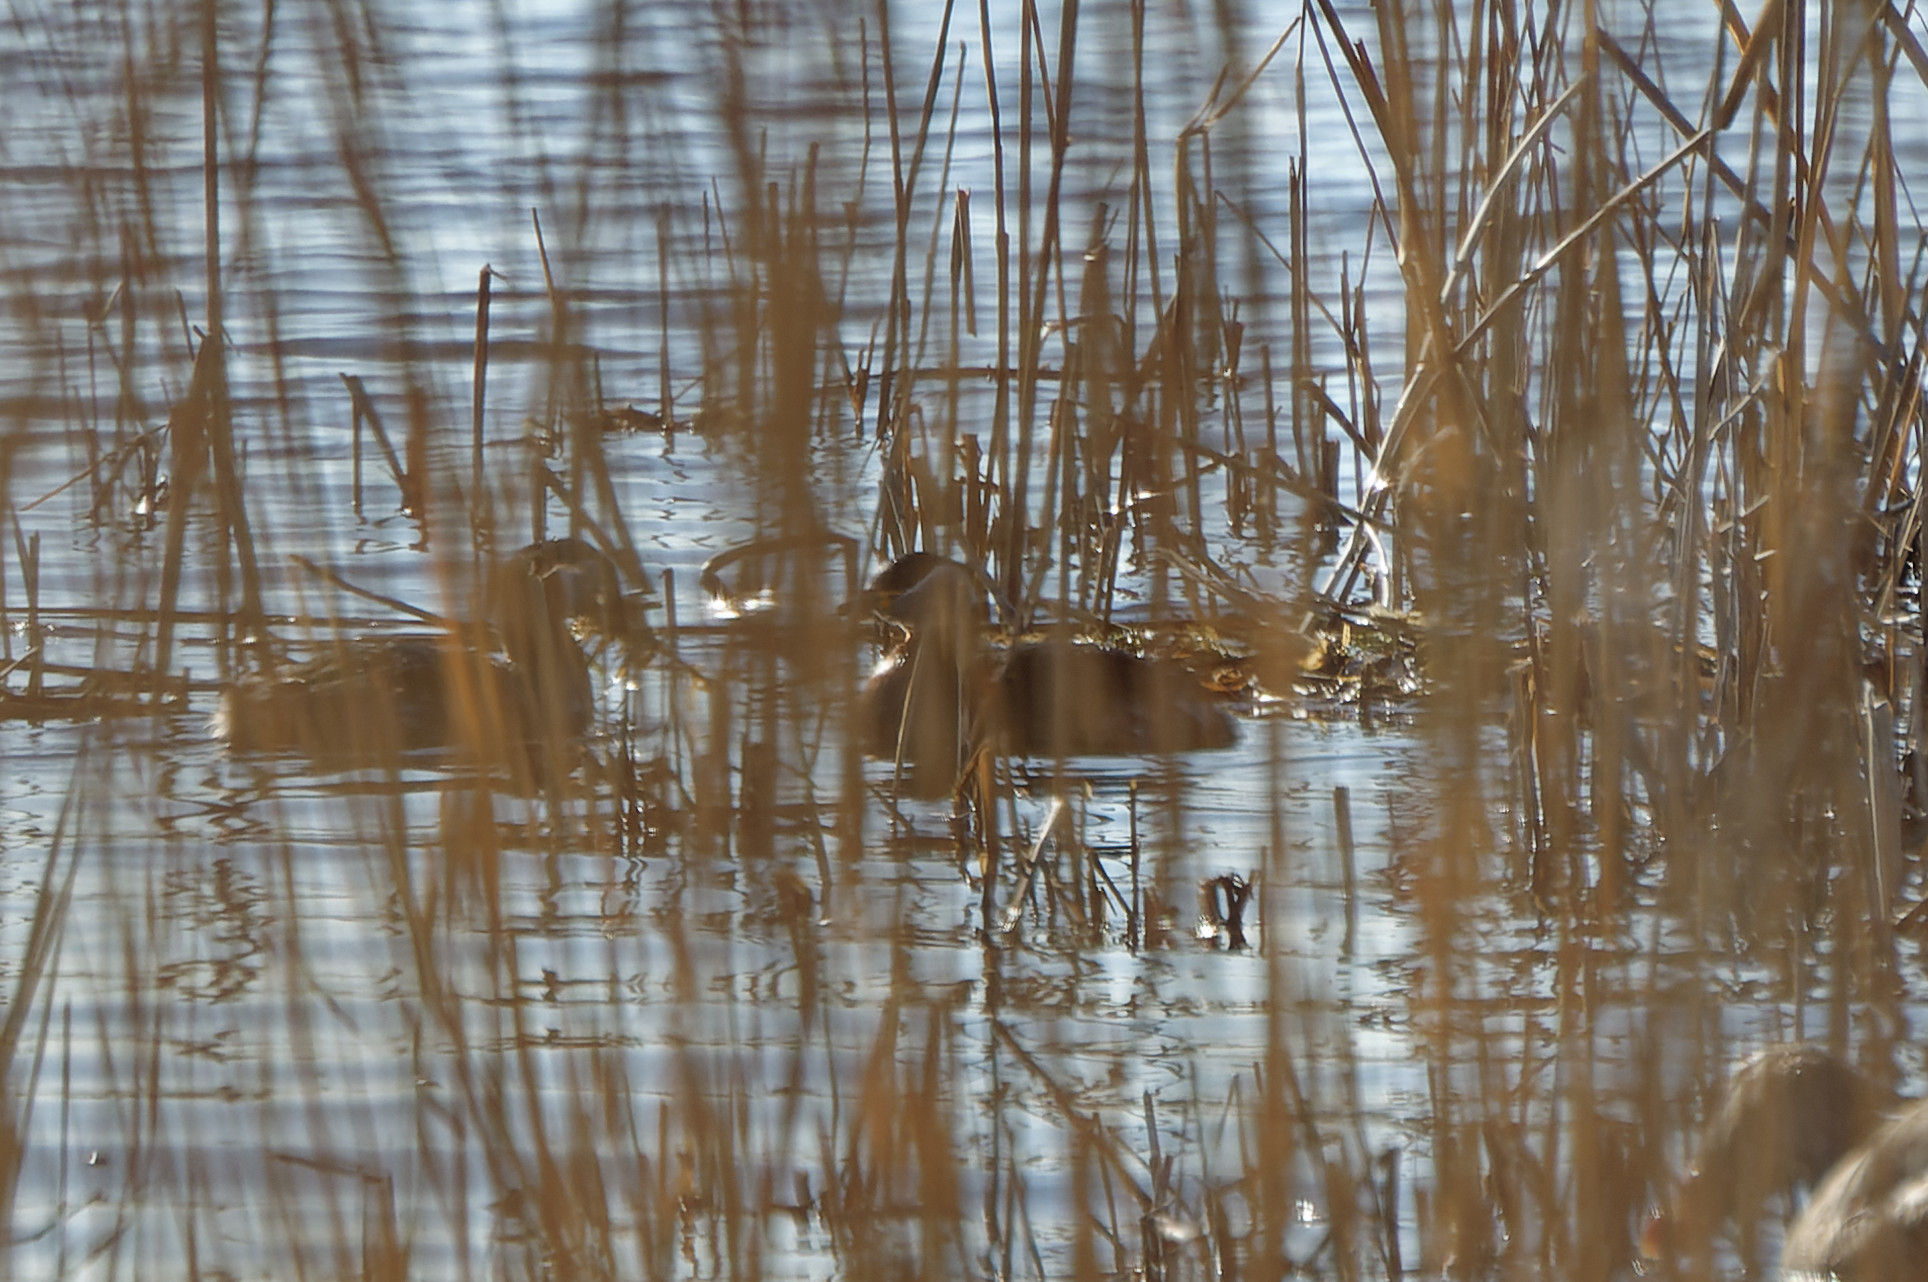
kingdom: Animalia
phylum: Chordata
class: Aves
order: Podicipediformes
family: Podicipedidae
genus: Podiceps
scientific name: Podiceps grisegena
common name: Red-necked grebe
